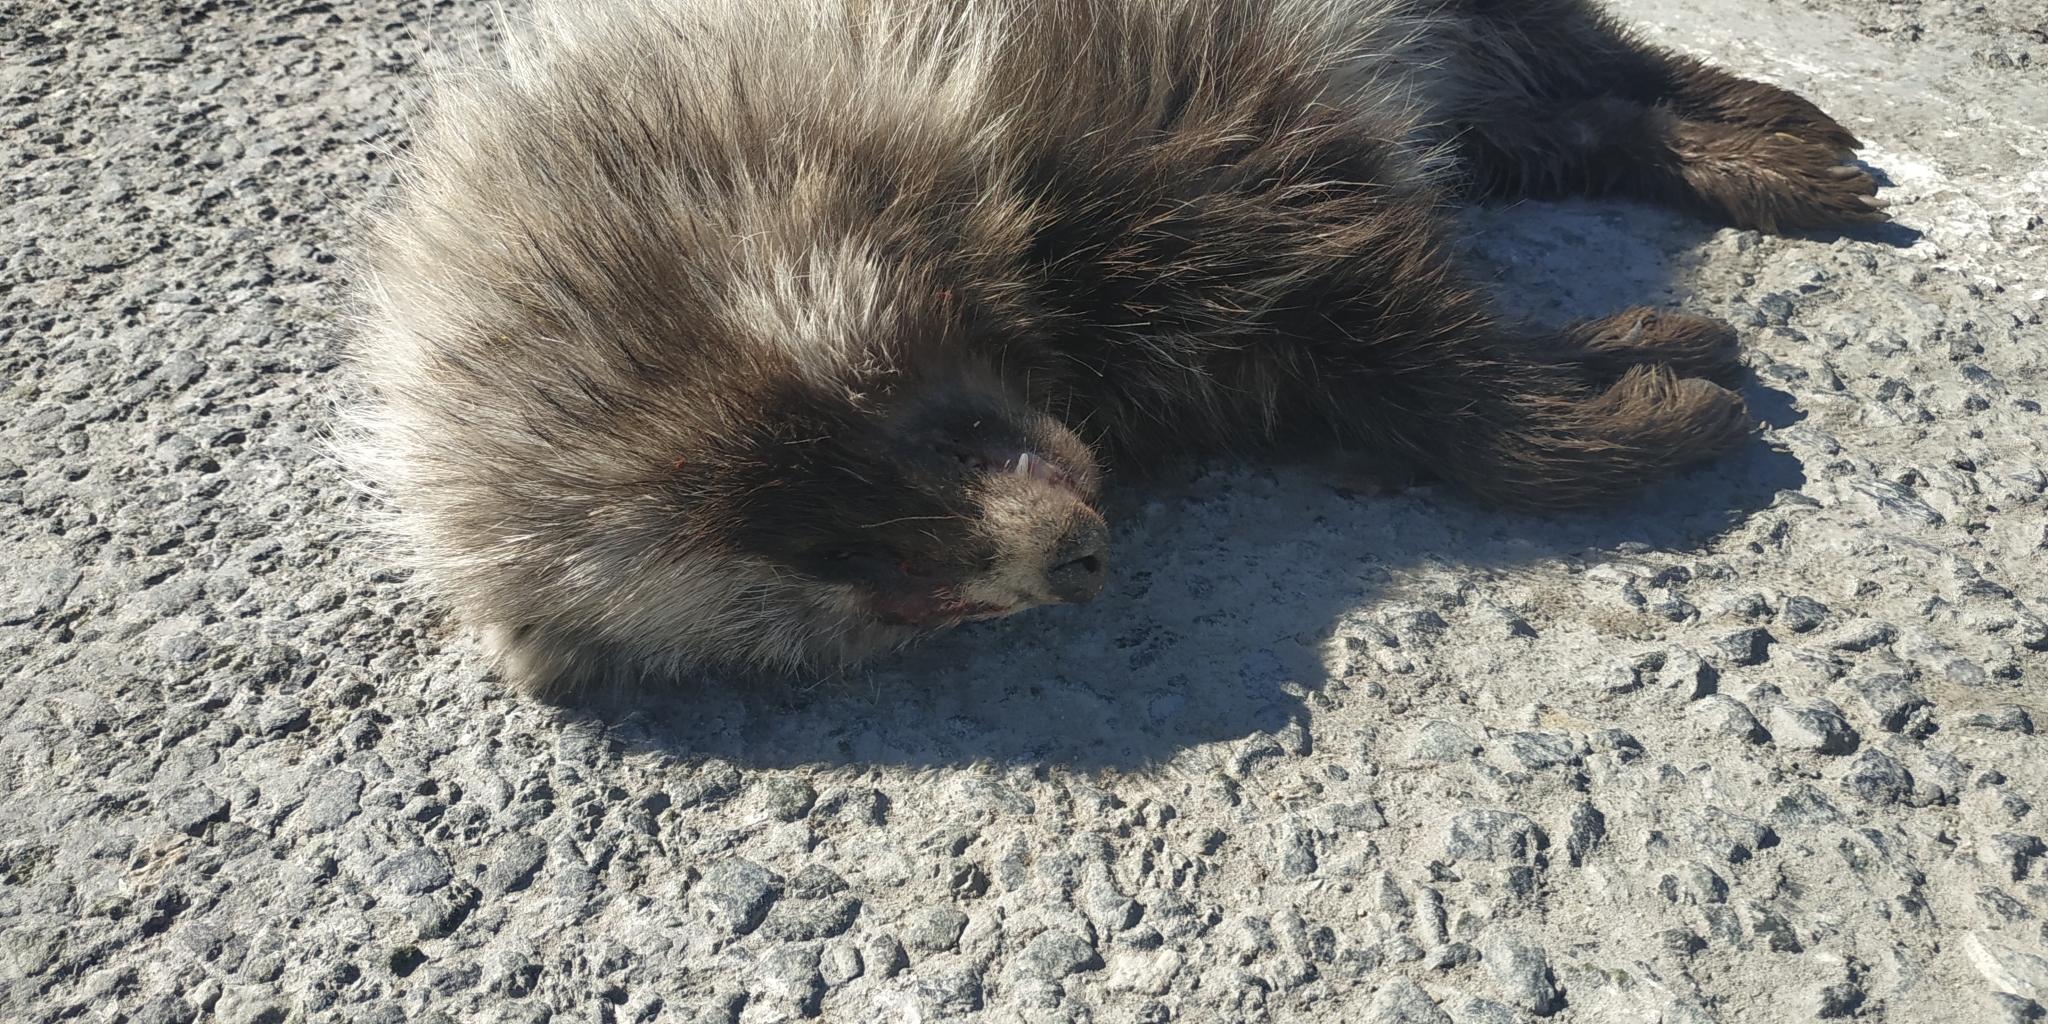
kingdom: Animalia
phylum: Chordata
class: Mammalia
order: Carnivora
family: Canidae
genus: Nyctereutes
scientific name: Nyctereutes procyonoides
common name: Raccoon dog
